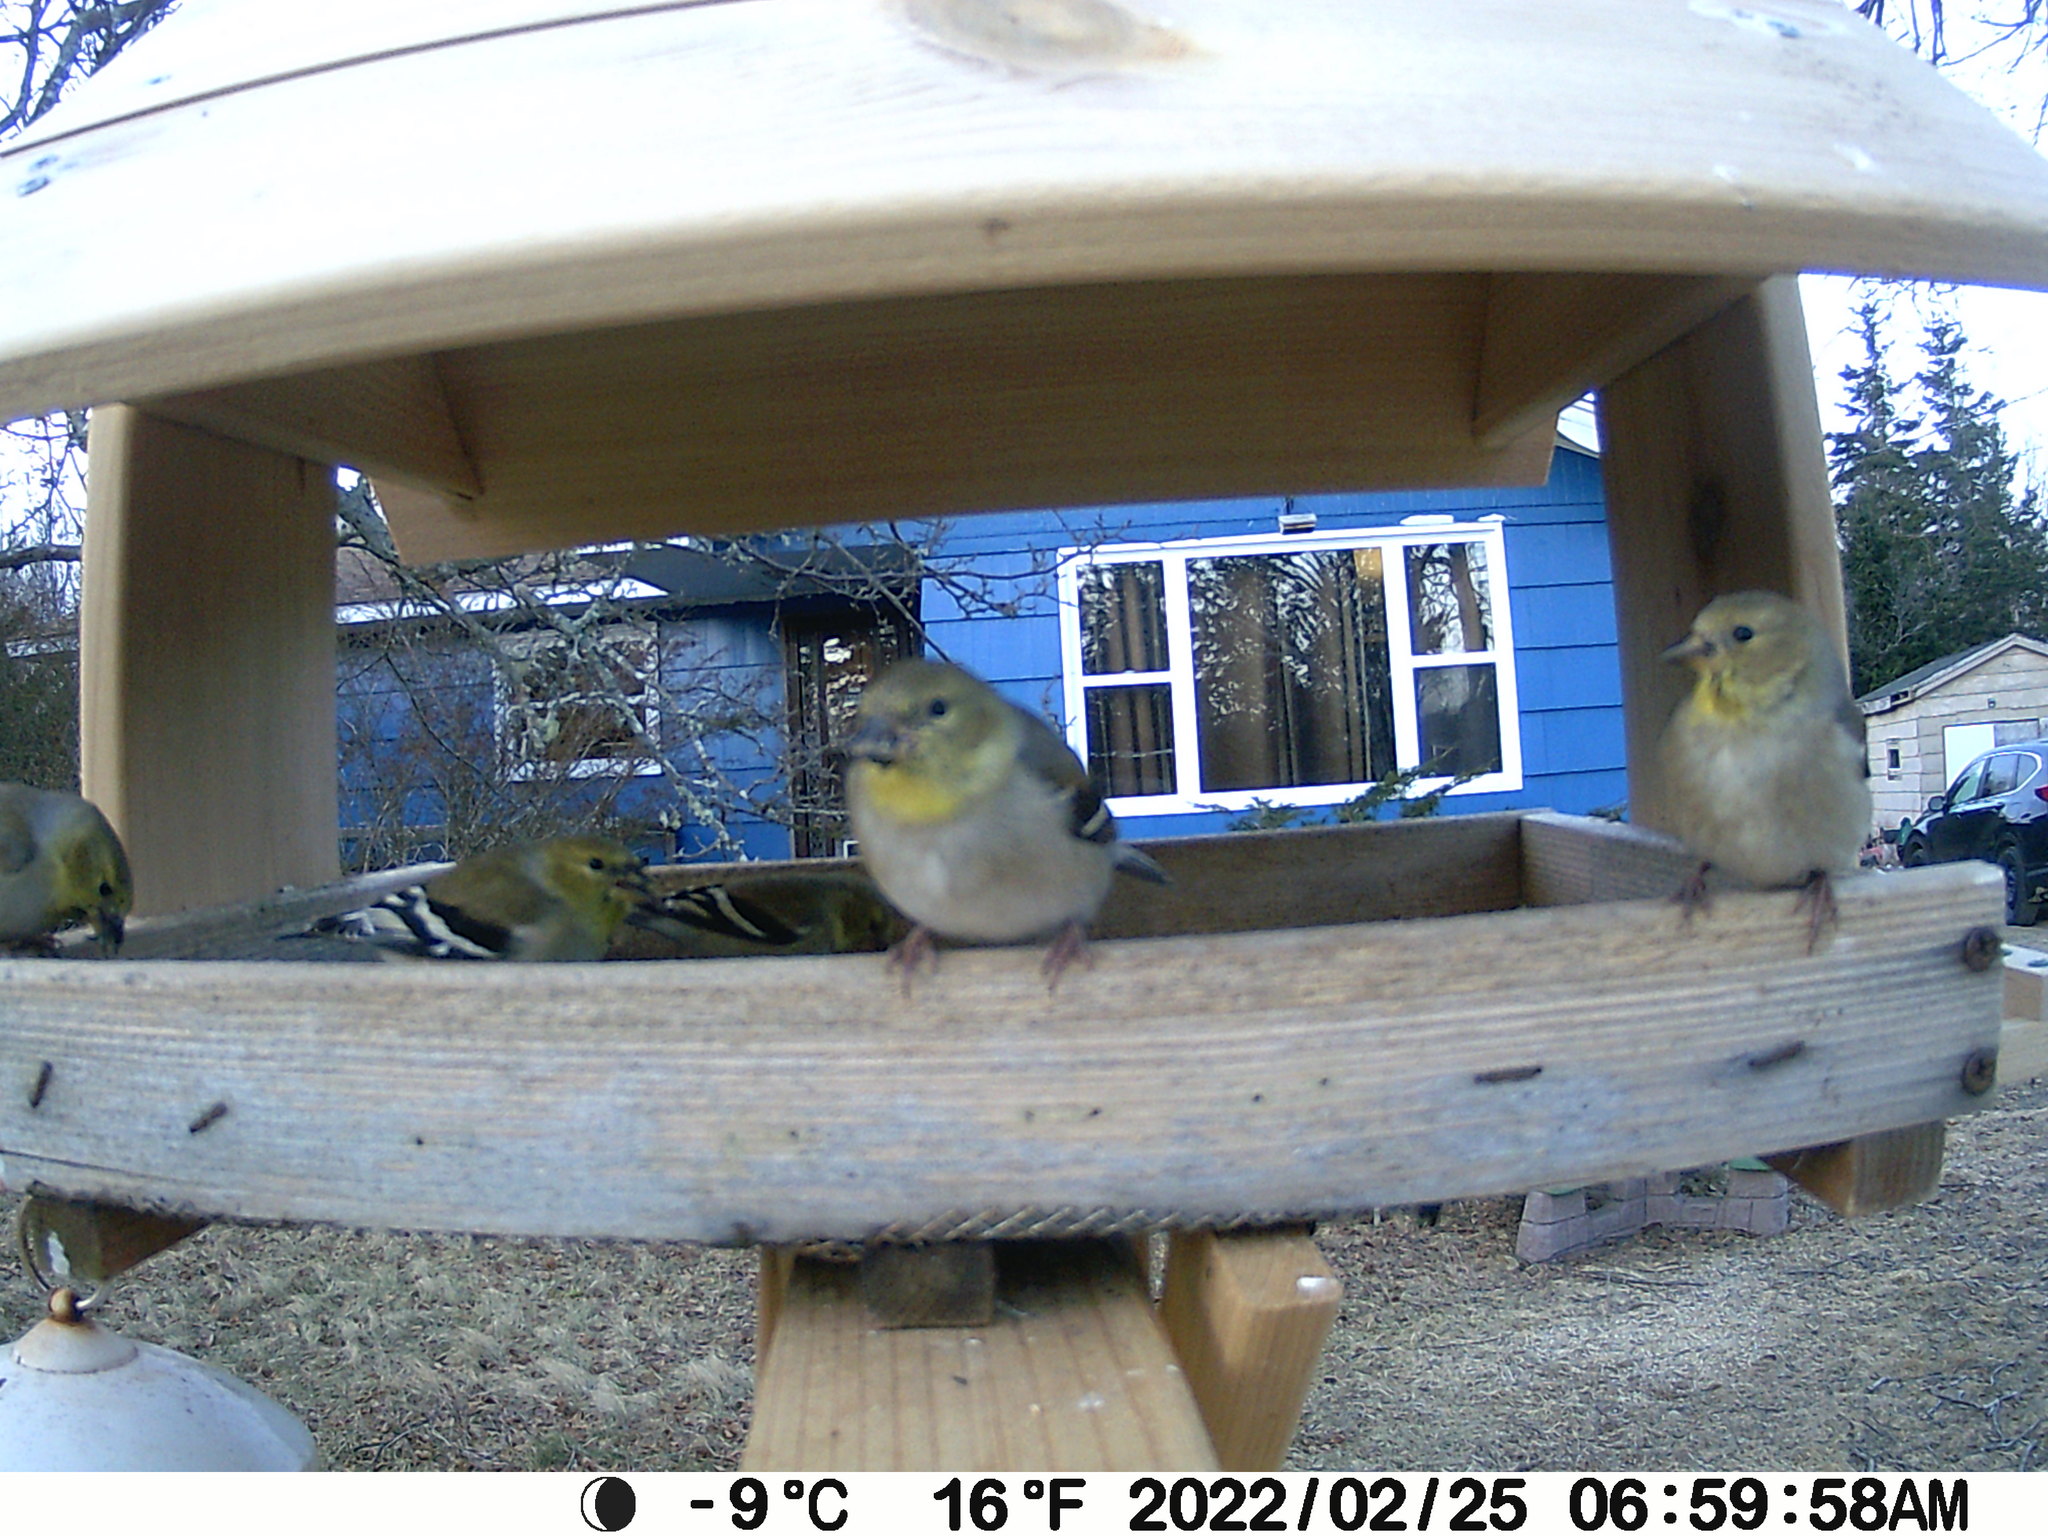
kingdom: Animalia
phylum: Chordata
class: Aves
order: Passeriformes
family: Fringillidae
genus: Spinus
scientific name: Spinus tristis
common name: American goldfinch
